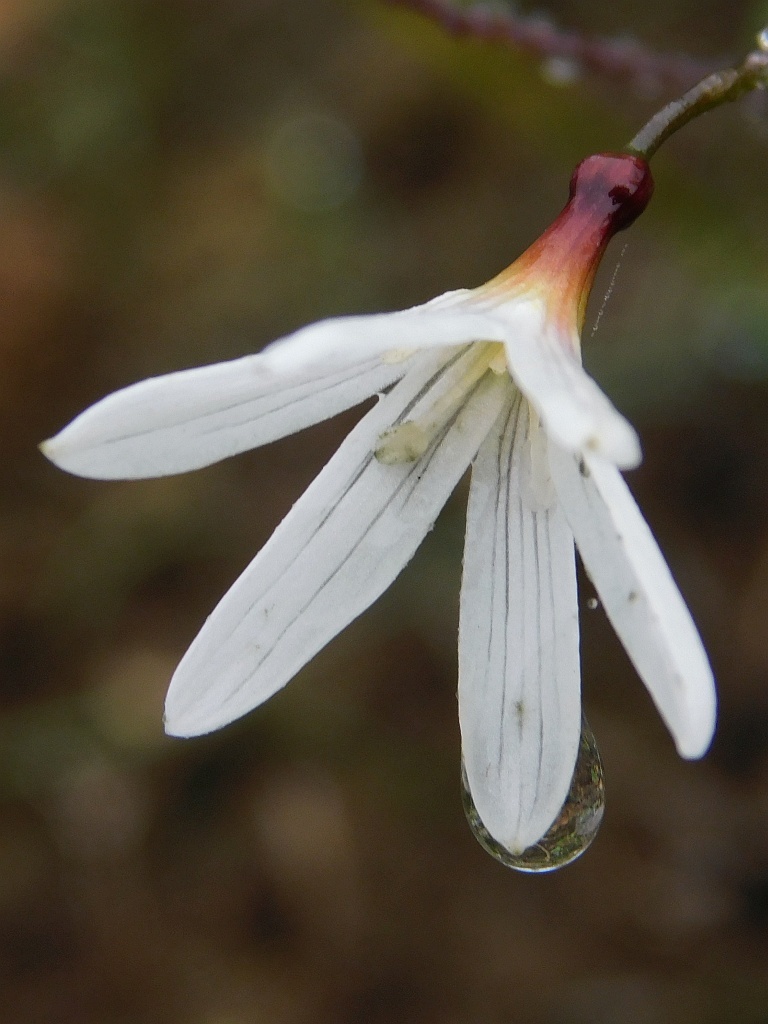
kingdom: Plantae
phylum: Tracheophyta
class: Liliopsida
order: Asparagales
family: Amaryllidaceae
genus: Strumaria
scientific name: Strumaria spiralis
